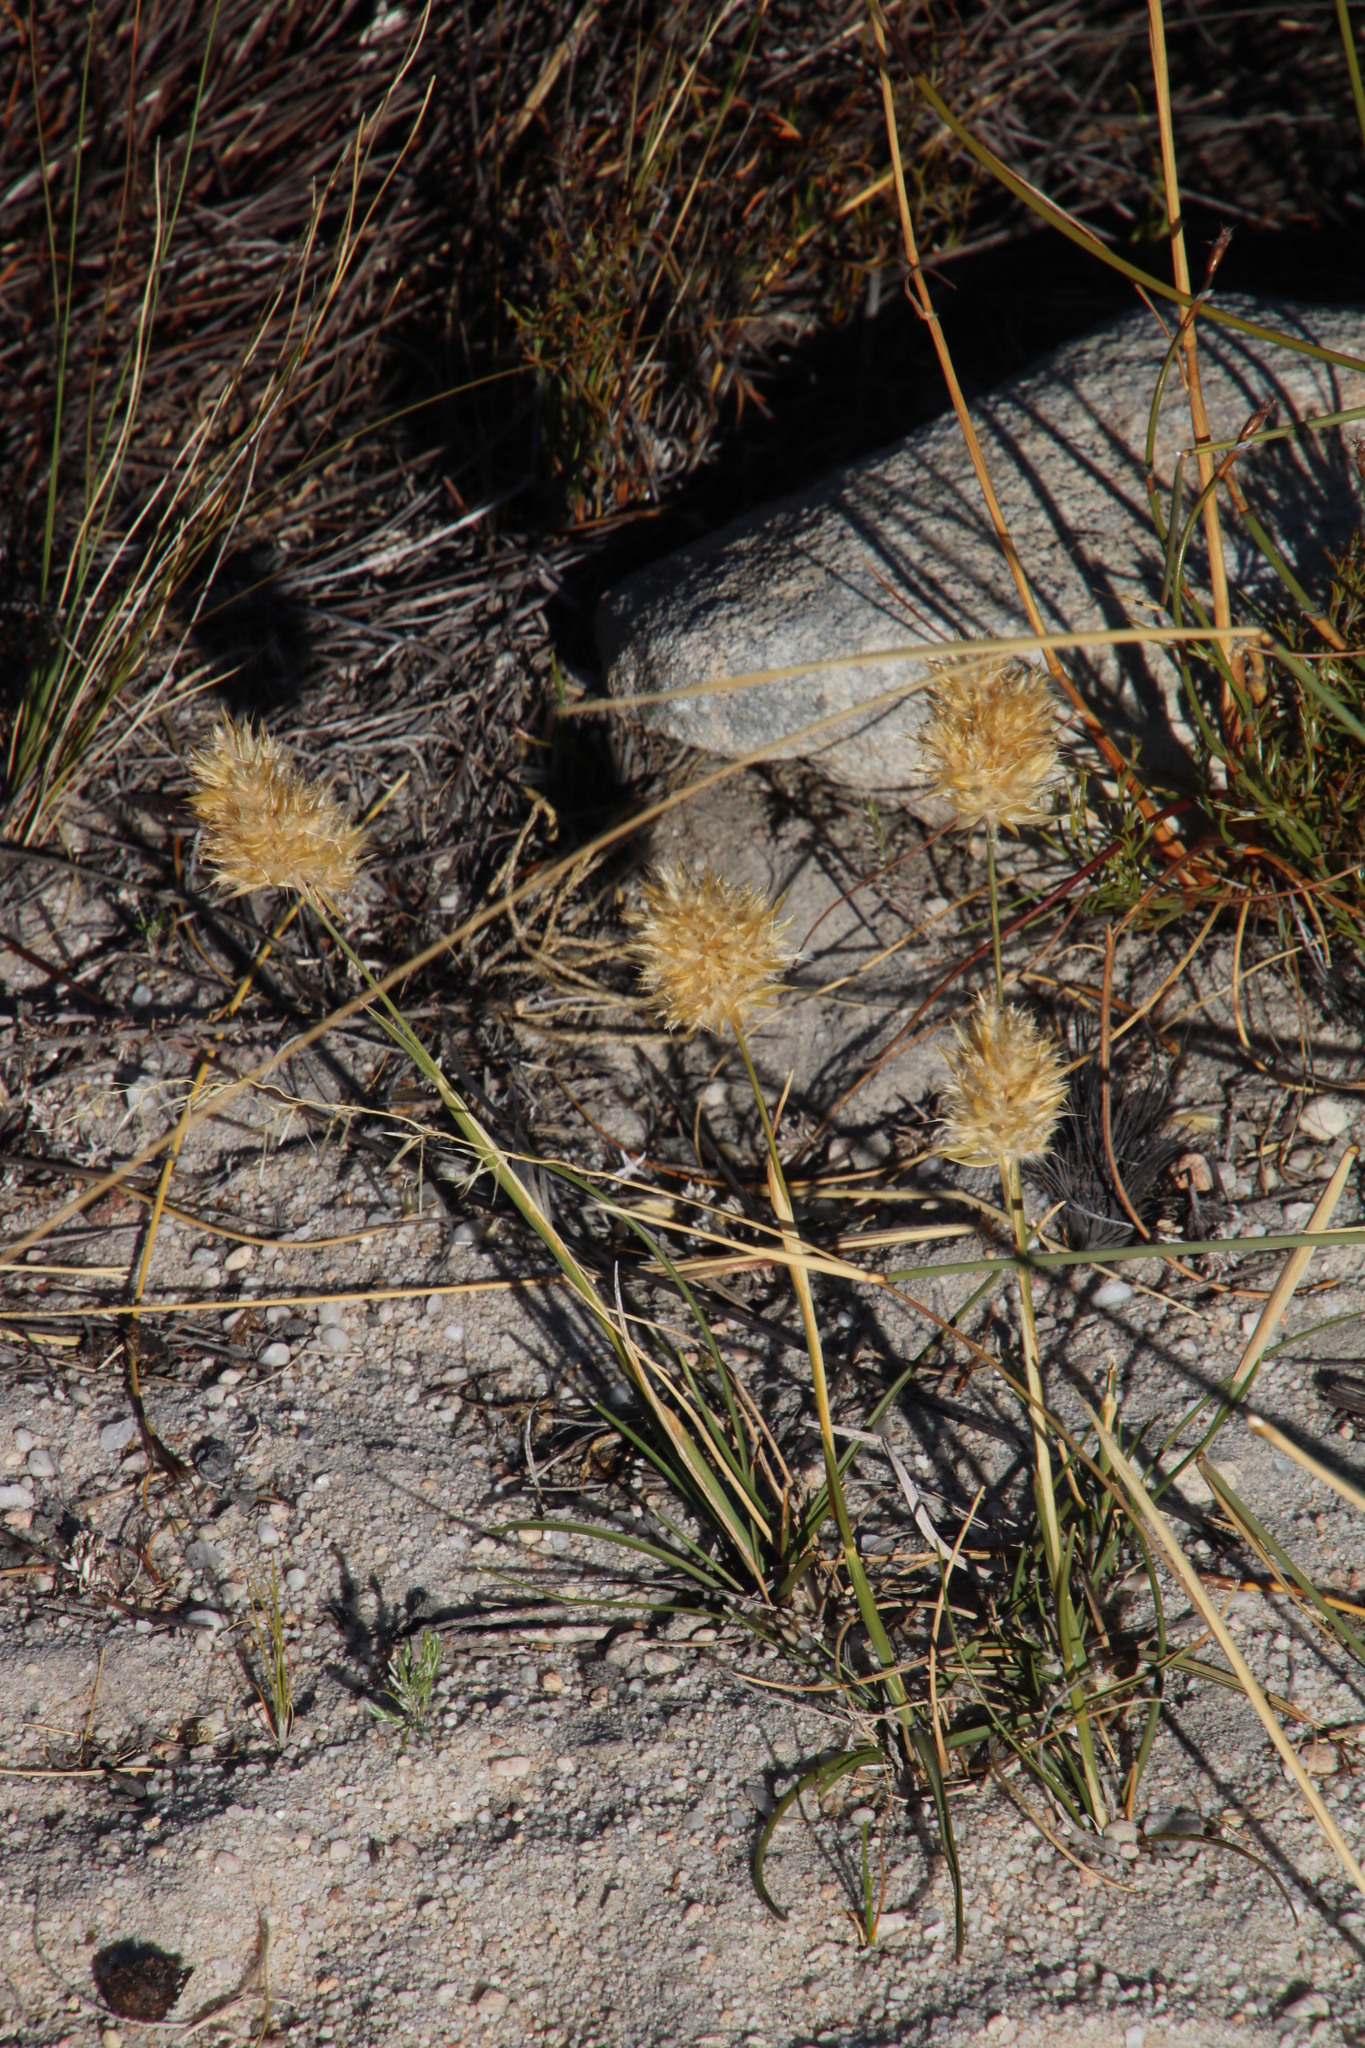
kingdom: Plantae
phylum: Tracheophyta
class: Liliopsida
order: Poales
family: Poaceae
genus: Geochloa
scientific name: Geochloa rufa
